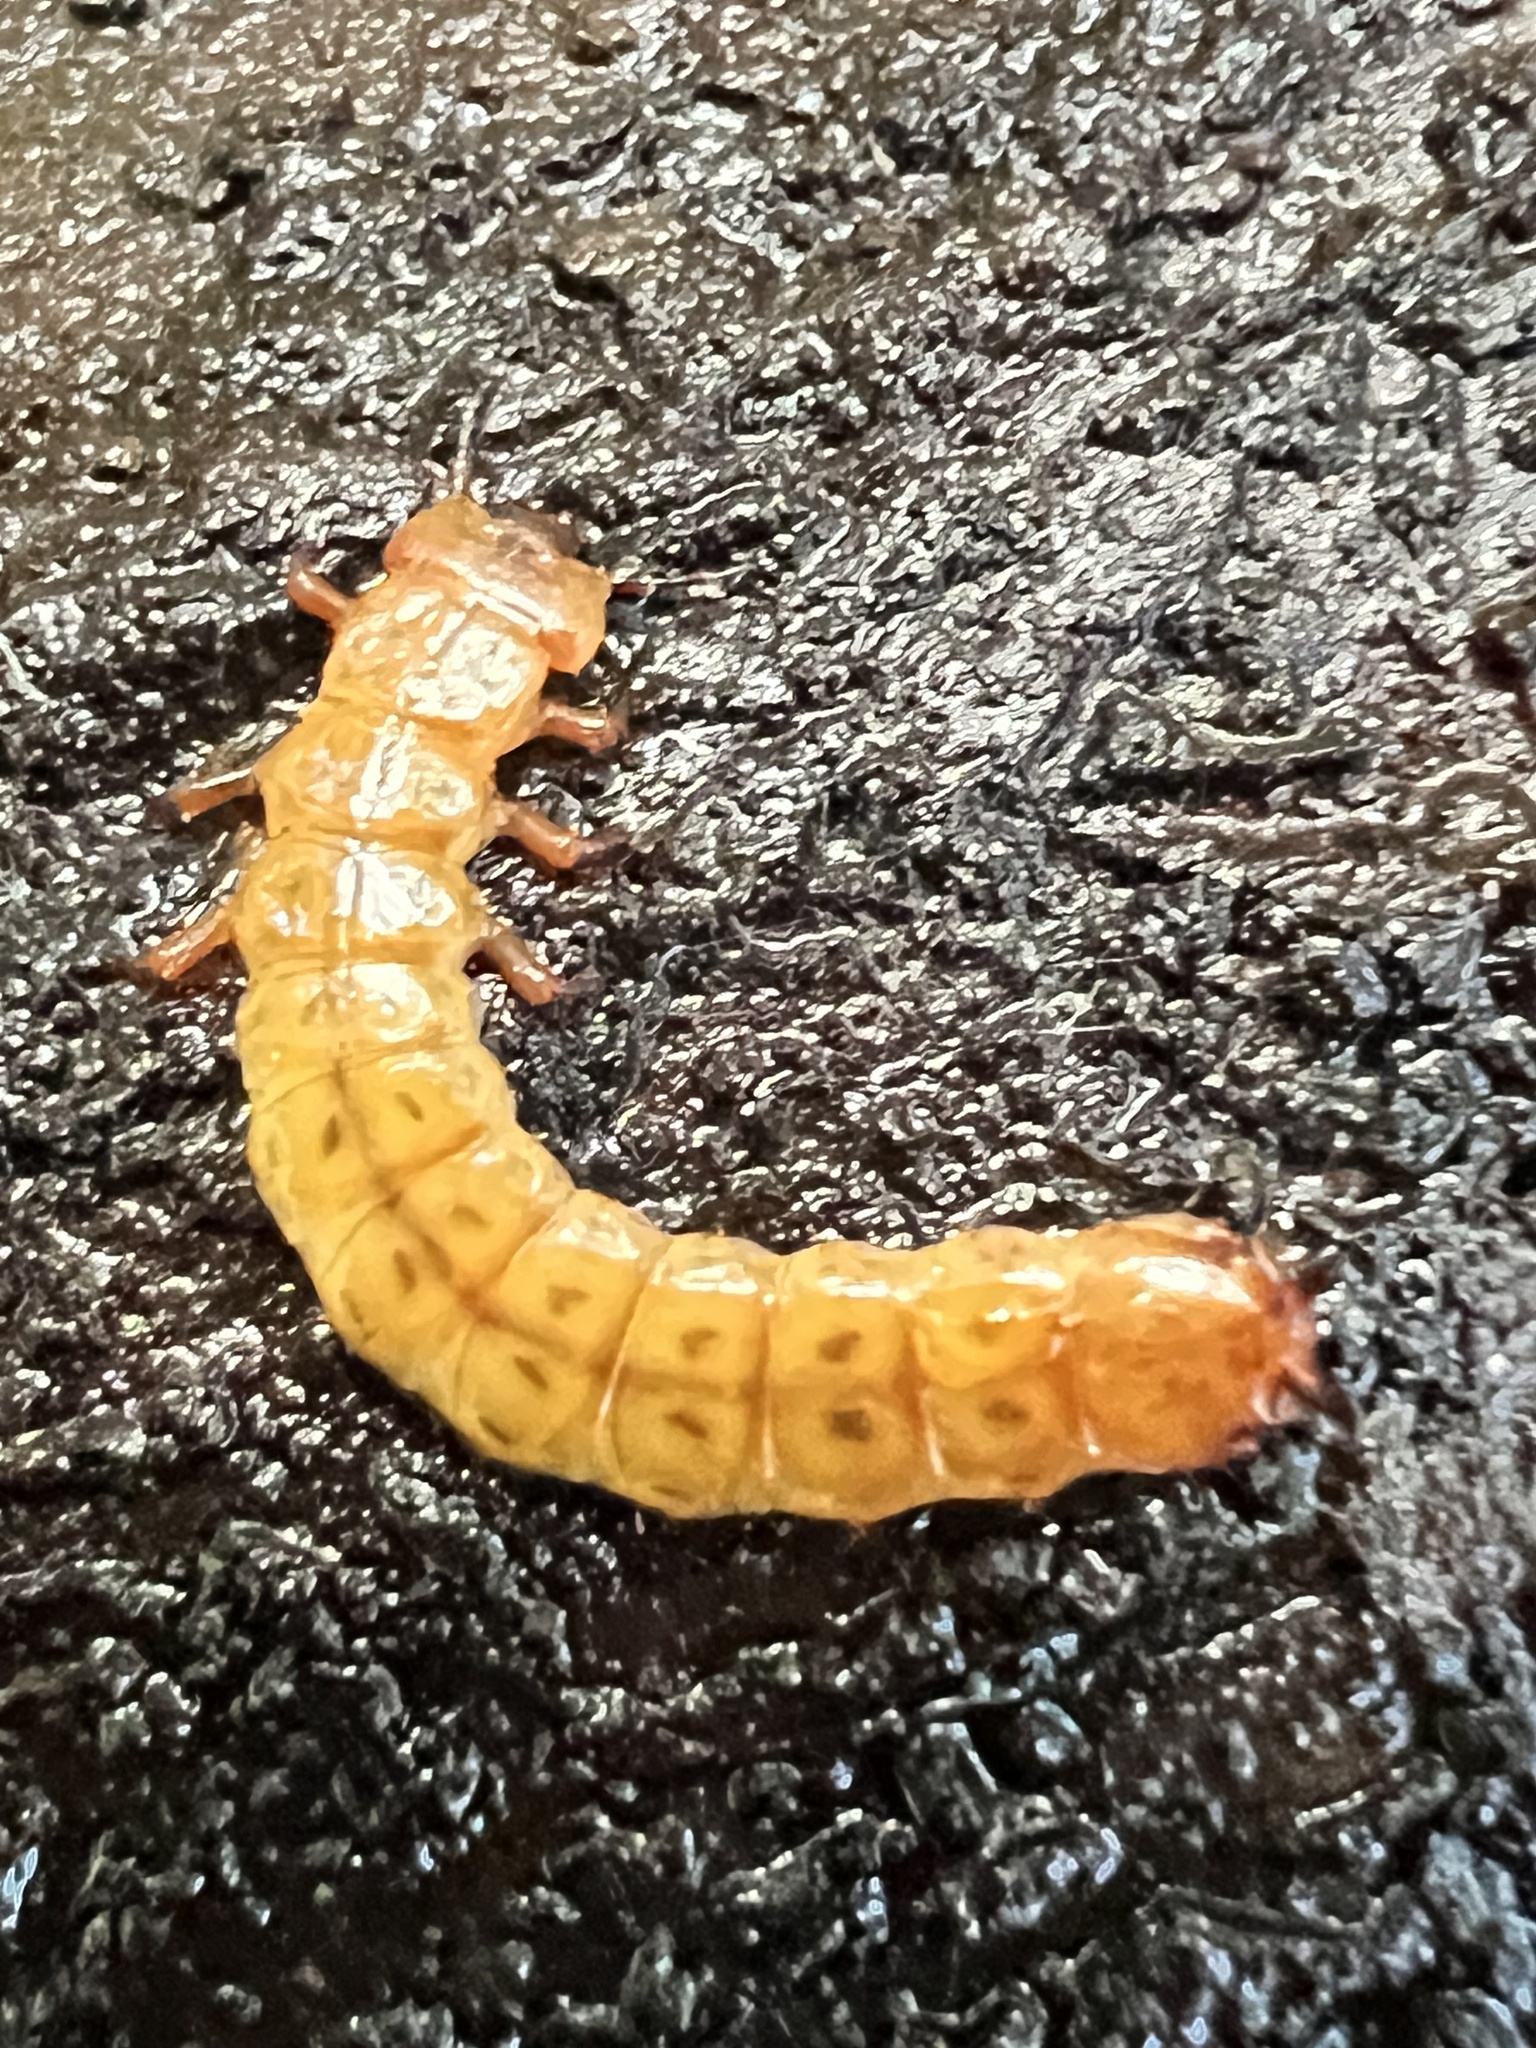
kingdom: Animalia
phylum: Arthropoda
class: Insecta
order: Coleoptera
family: Cucujidae
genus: Cucujus
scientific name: Cucujus clavipes
